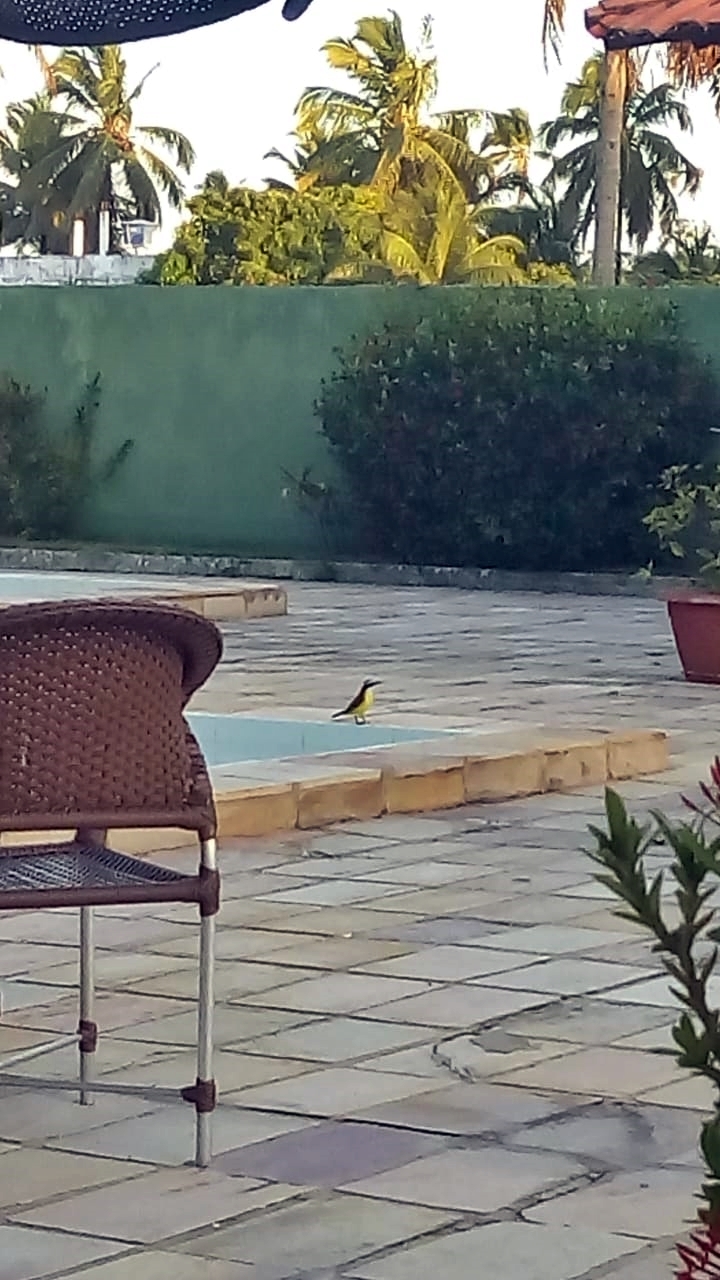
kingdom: Animalia
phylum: Chordata
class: Aves
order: Passeriformes
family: Tyrannidae
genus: Pitangus
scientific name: Pitangus sulphuratus
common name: Great kiskadee
